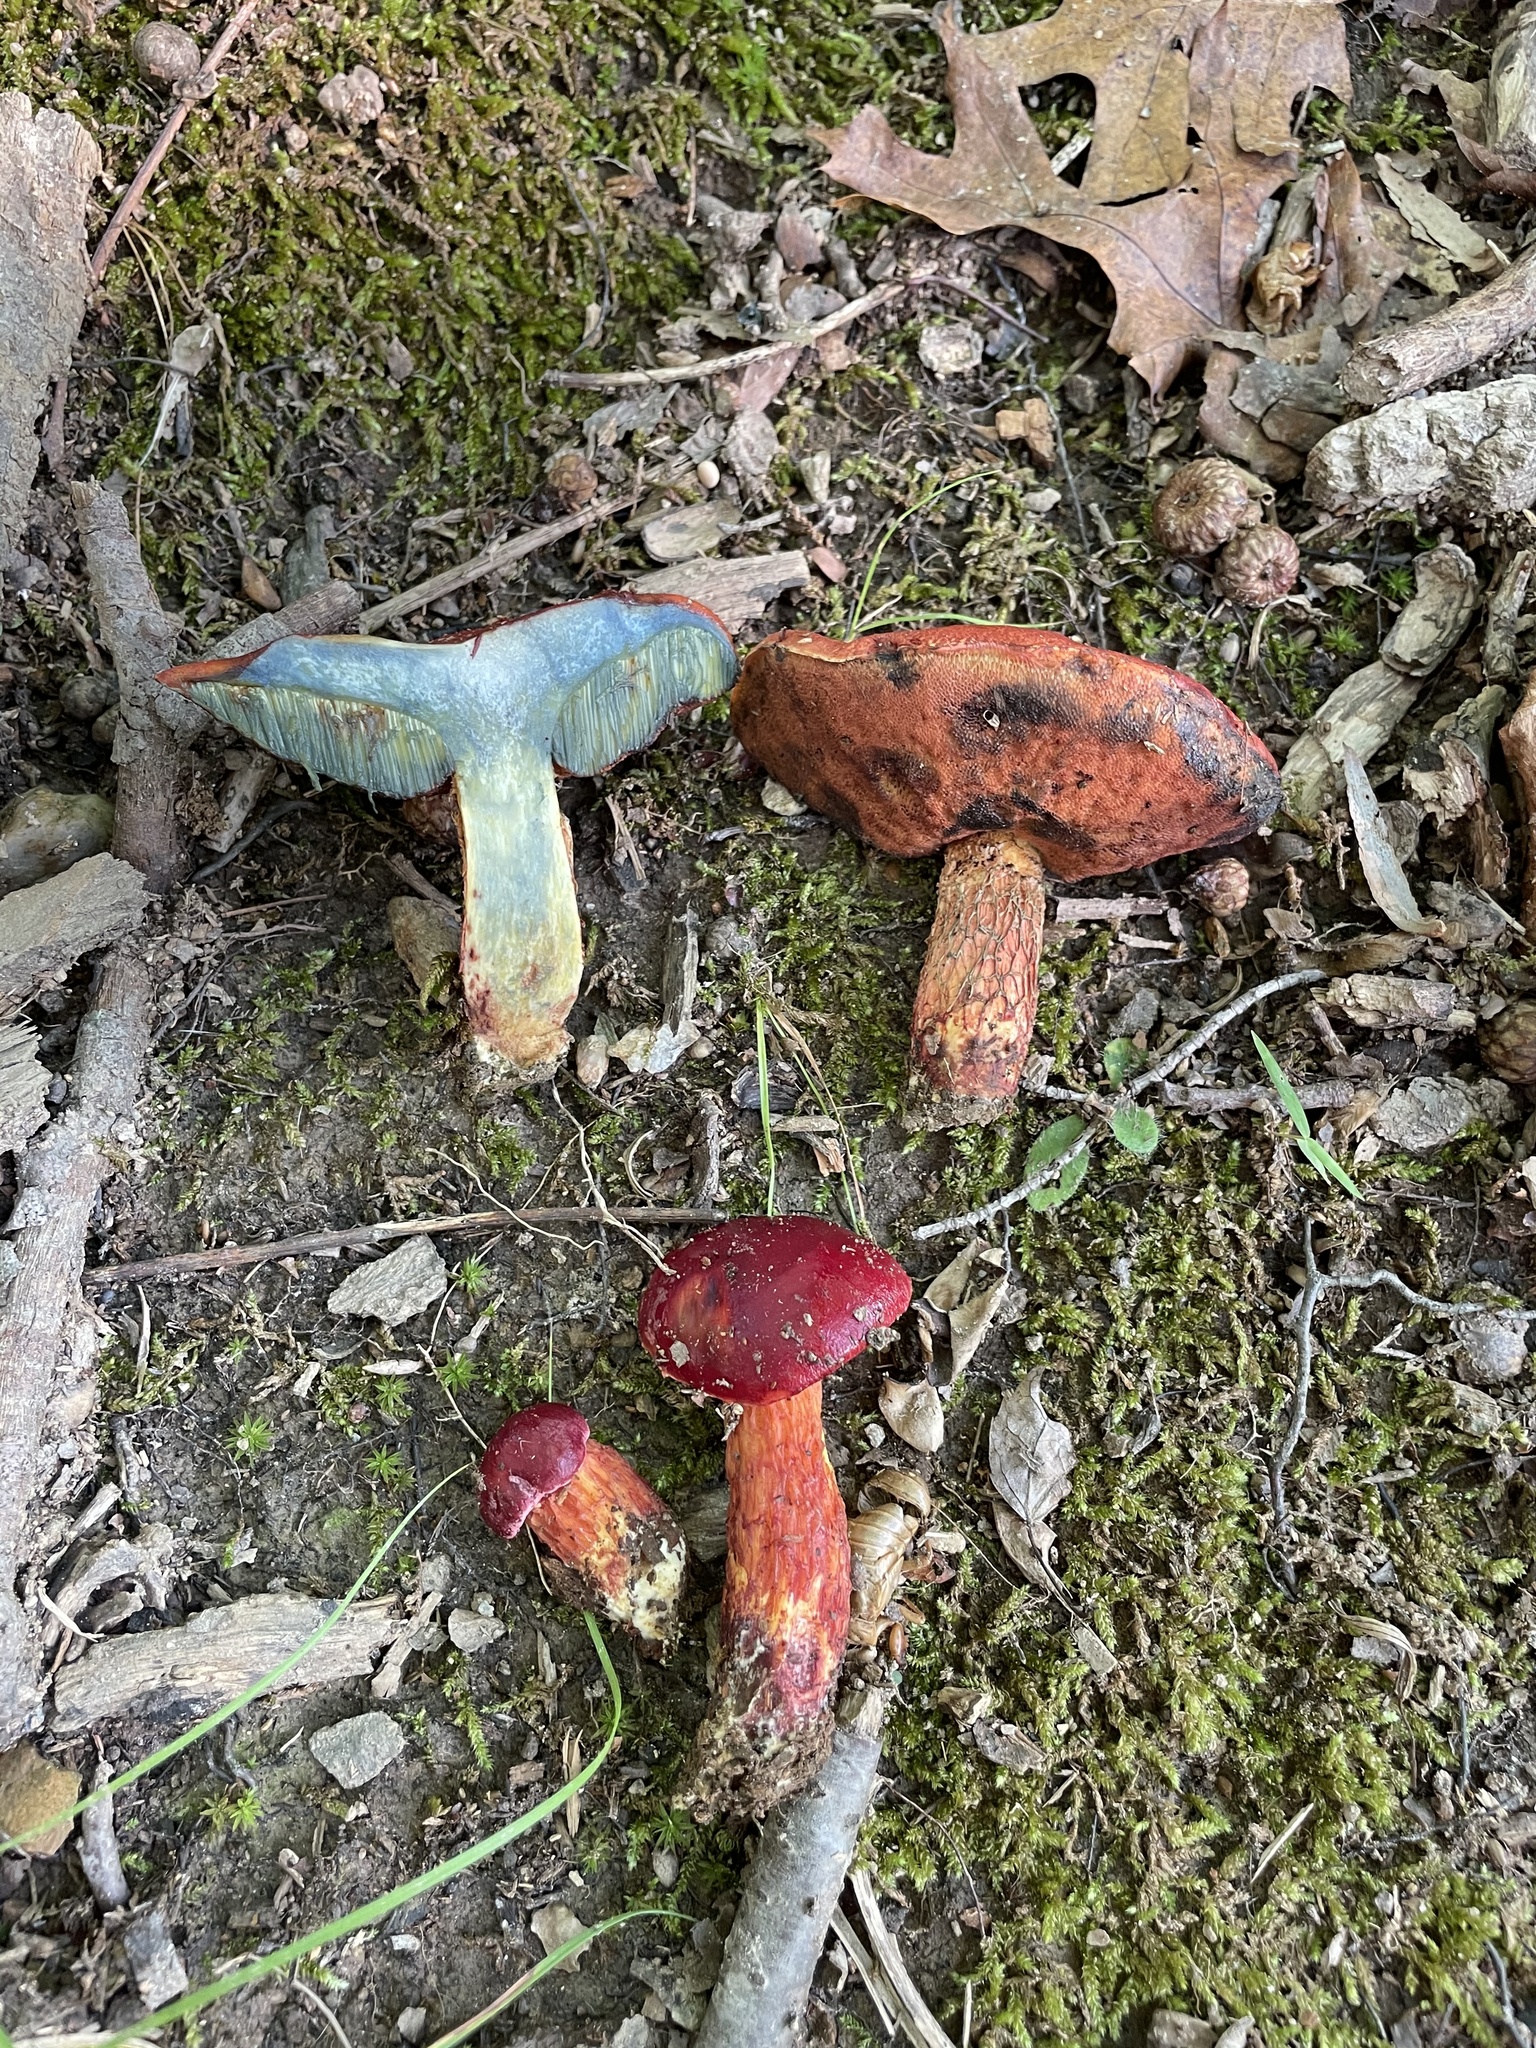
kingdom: Fungi
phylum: Basidiomycota
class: Agaricomycetes
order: Boletales
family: Boletaceae
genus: Butyriboletus
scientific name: Butyriboletus frostii
